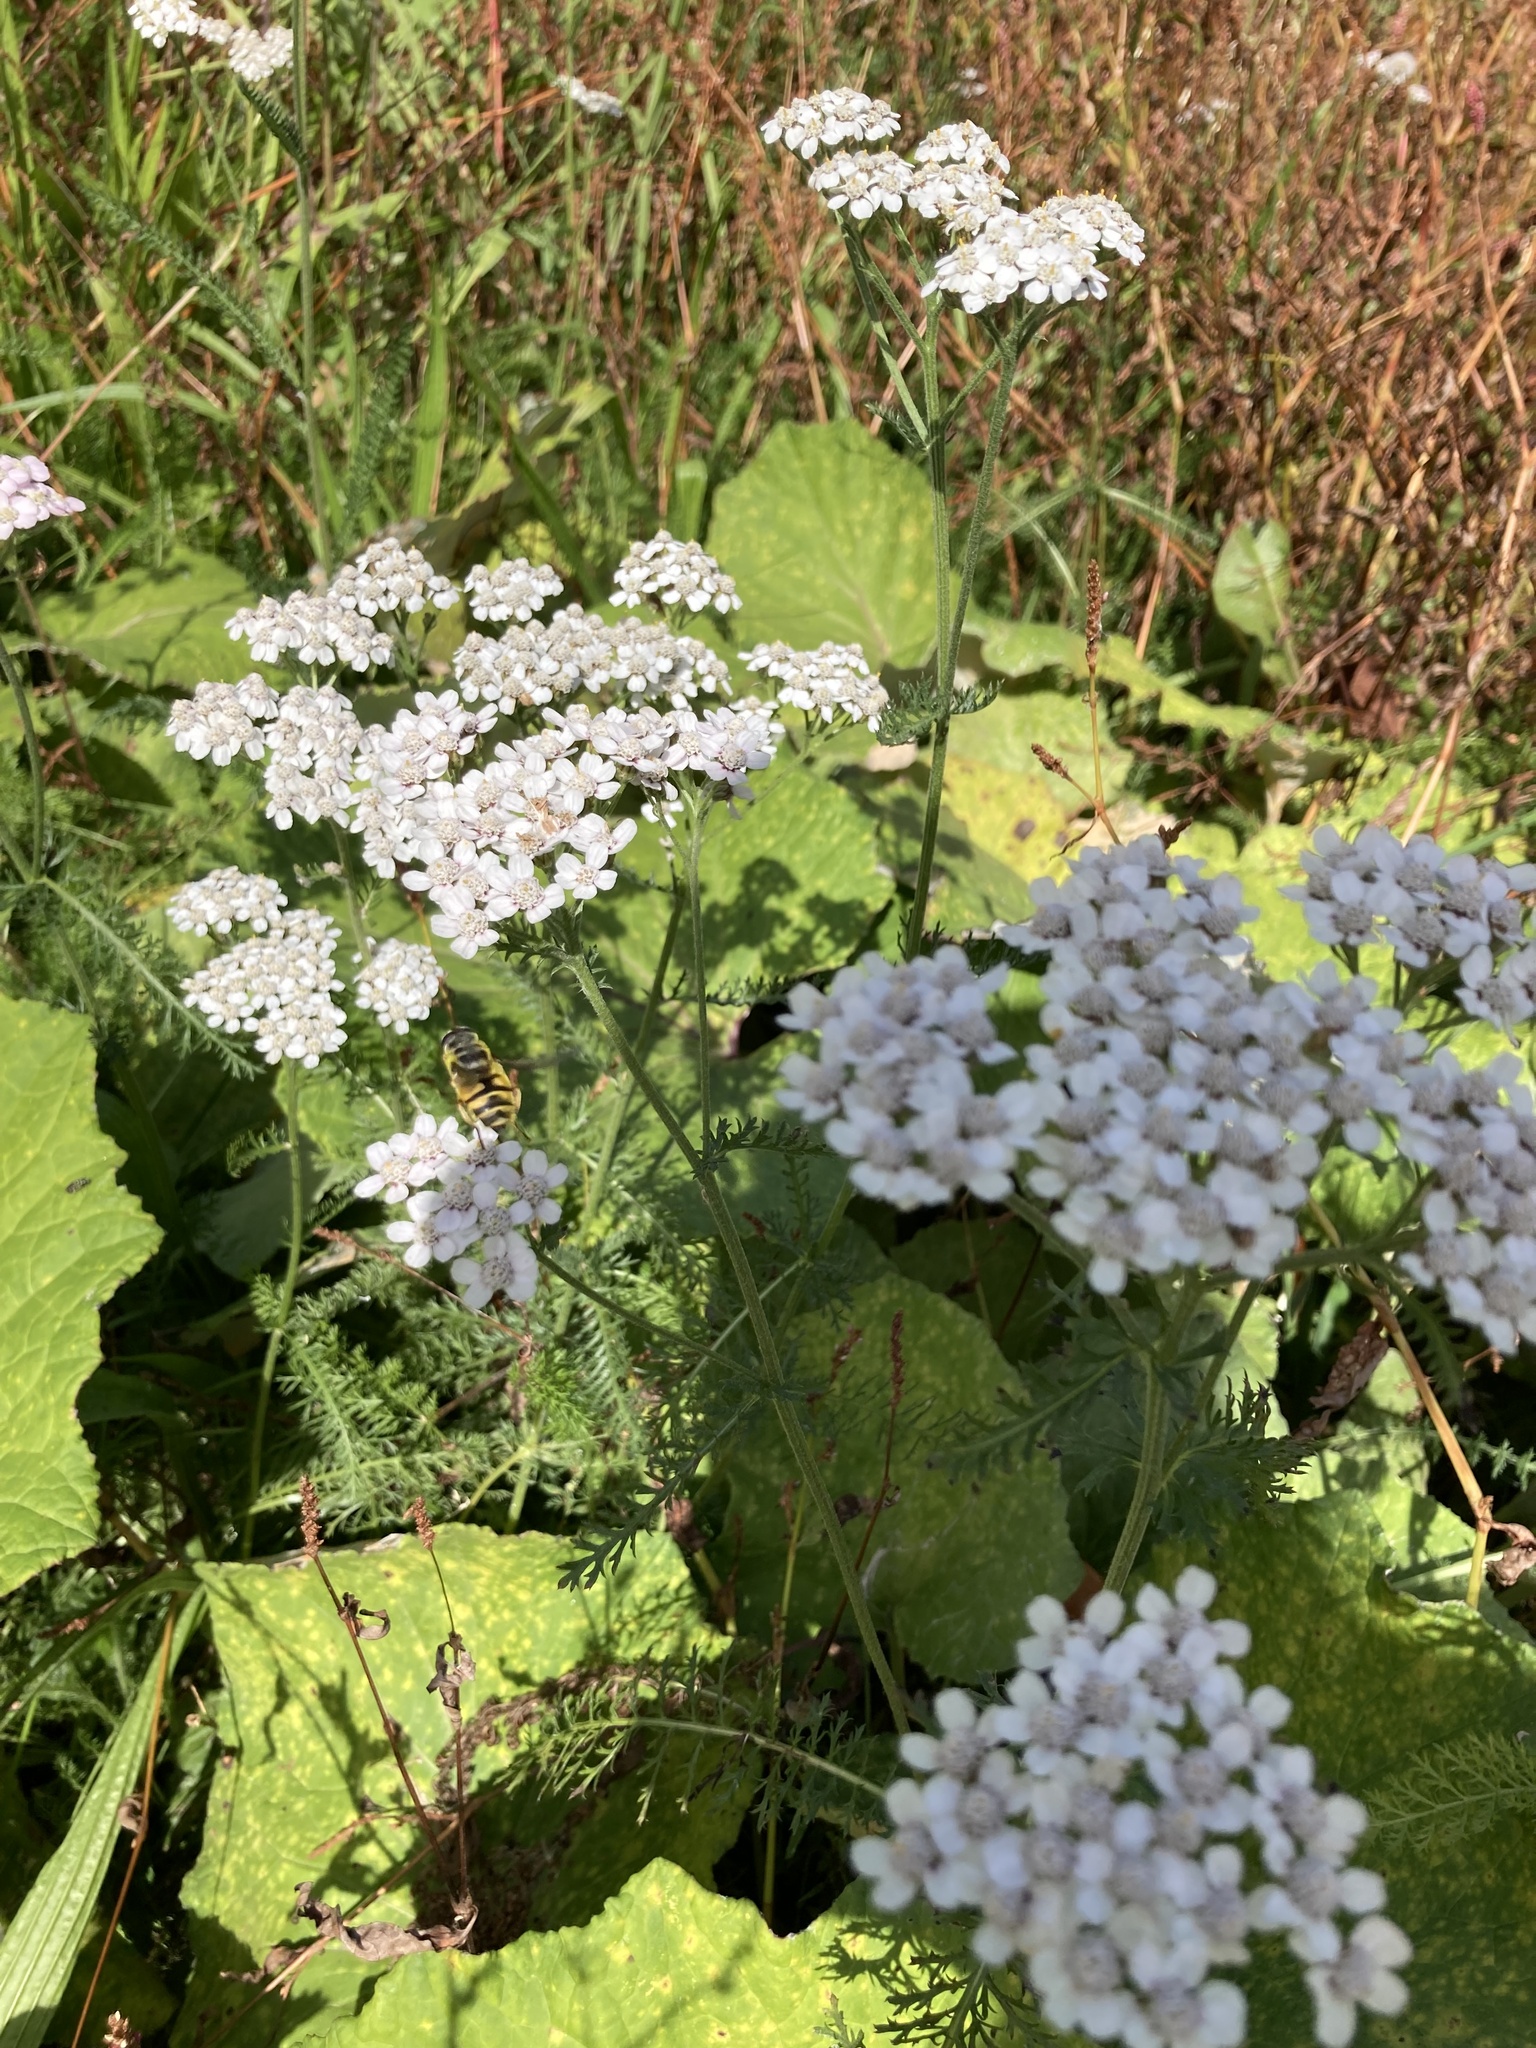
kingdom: Animalia
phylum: Arthropoda
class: Insecta
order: Diptera
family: Syrphidae
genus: Myathropa
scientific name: Myathropa florea
